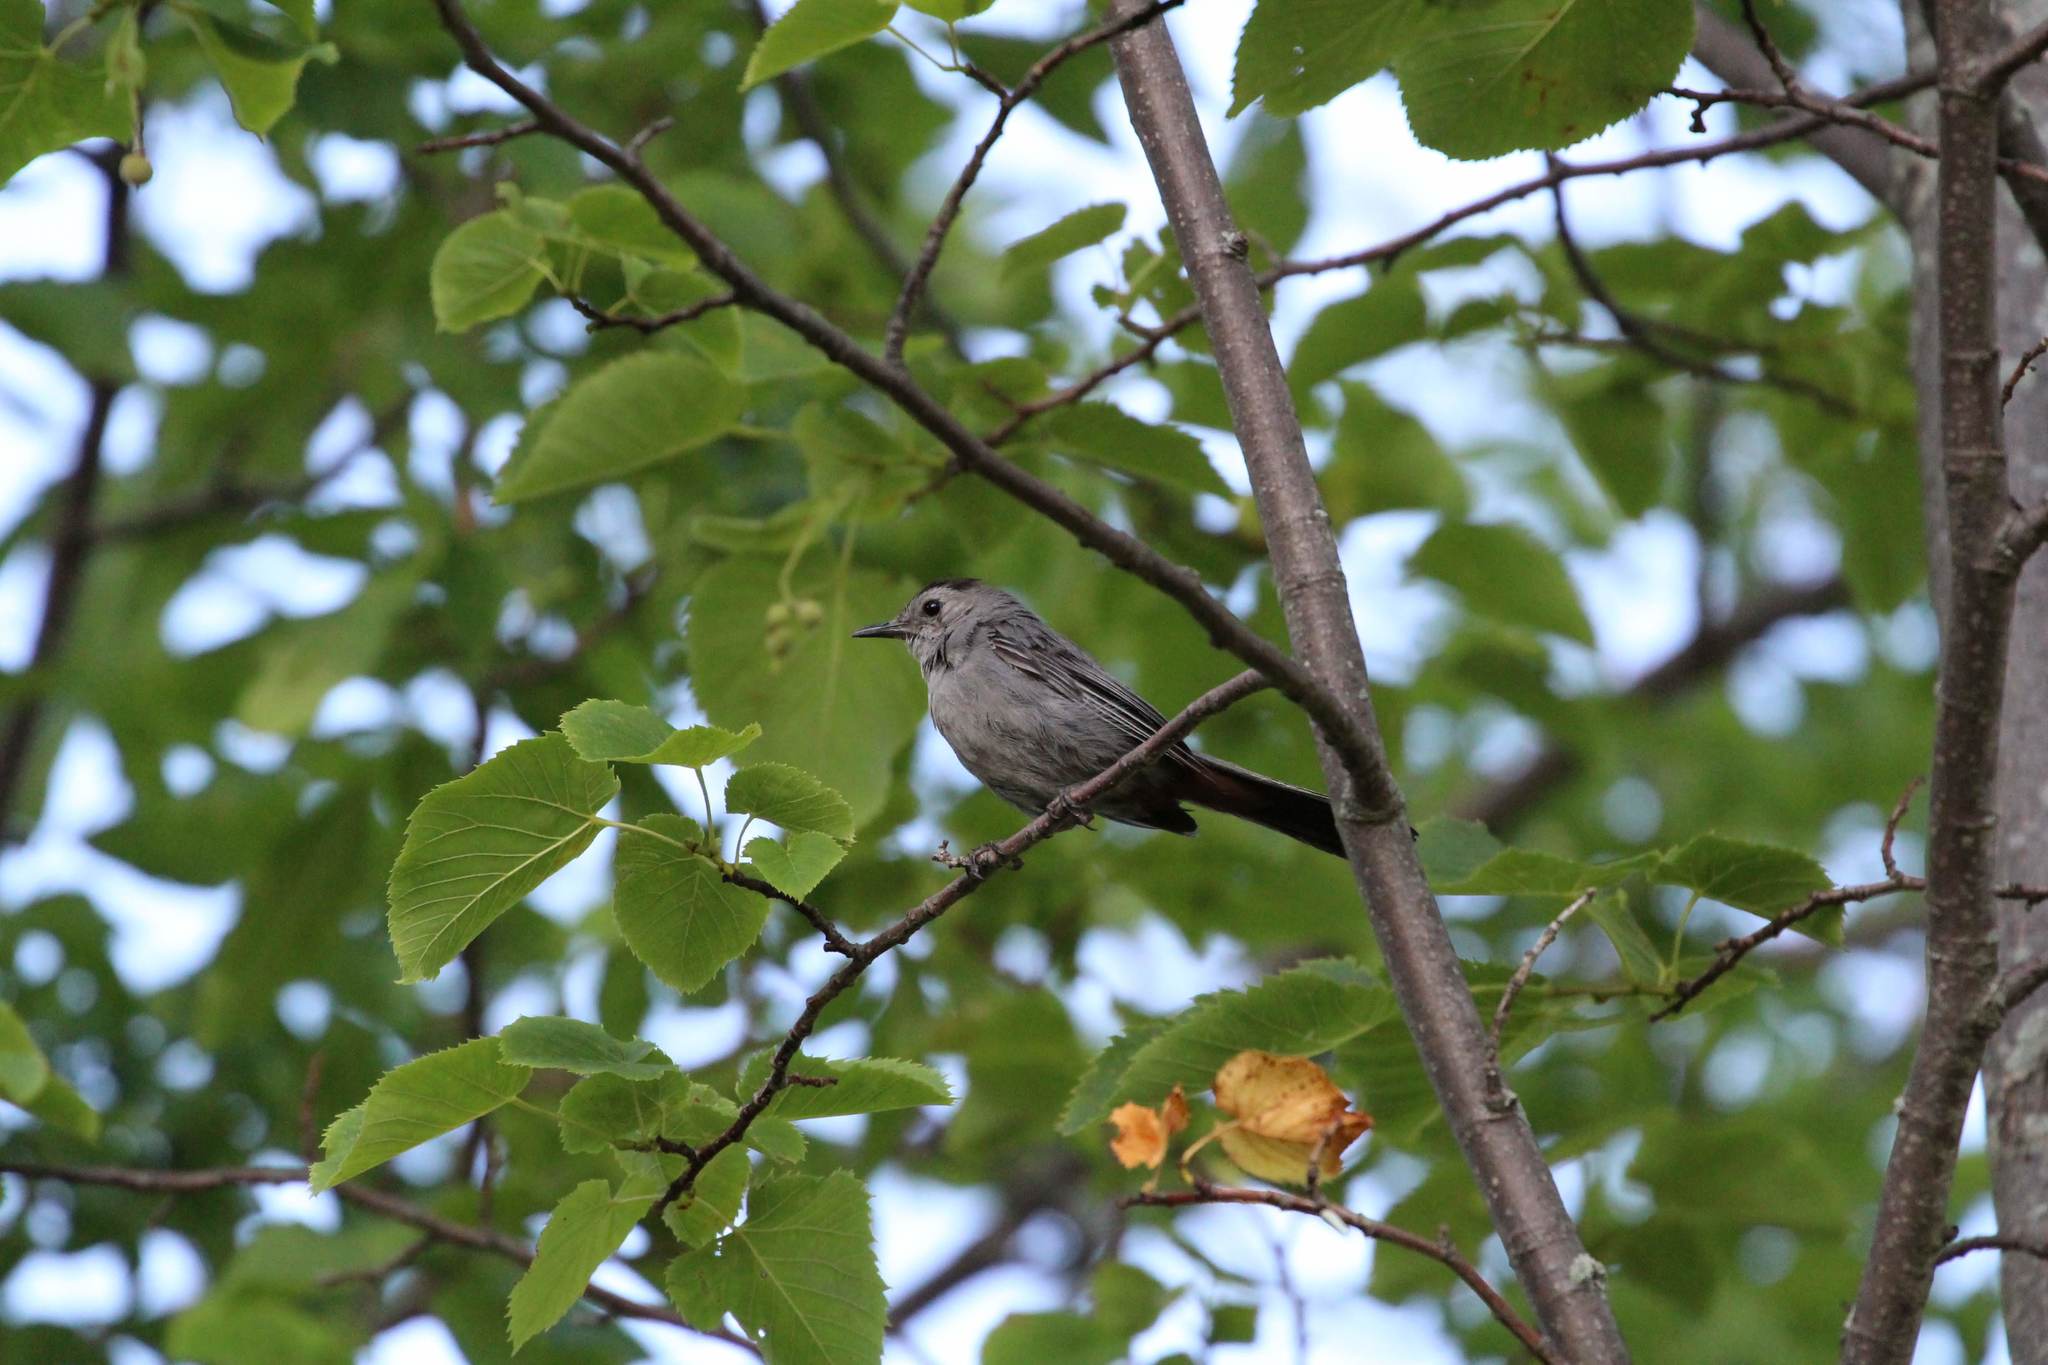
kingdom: Animalia
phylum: Chordata
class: Aves
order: Passeriformes
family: Mimidae
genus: Dumetella
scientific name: Dumetella carolinensis
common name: Gray catbird
